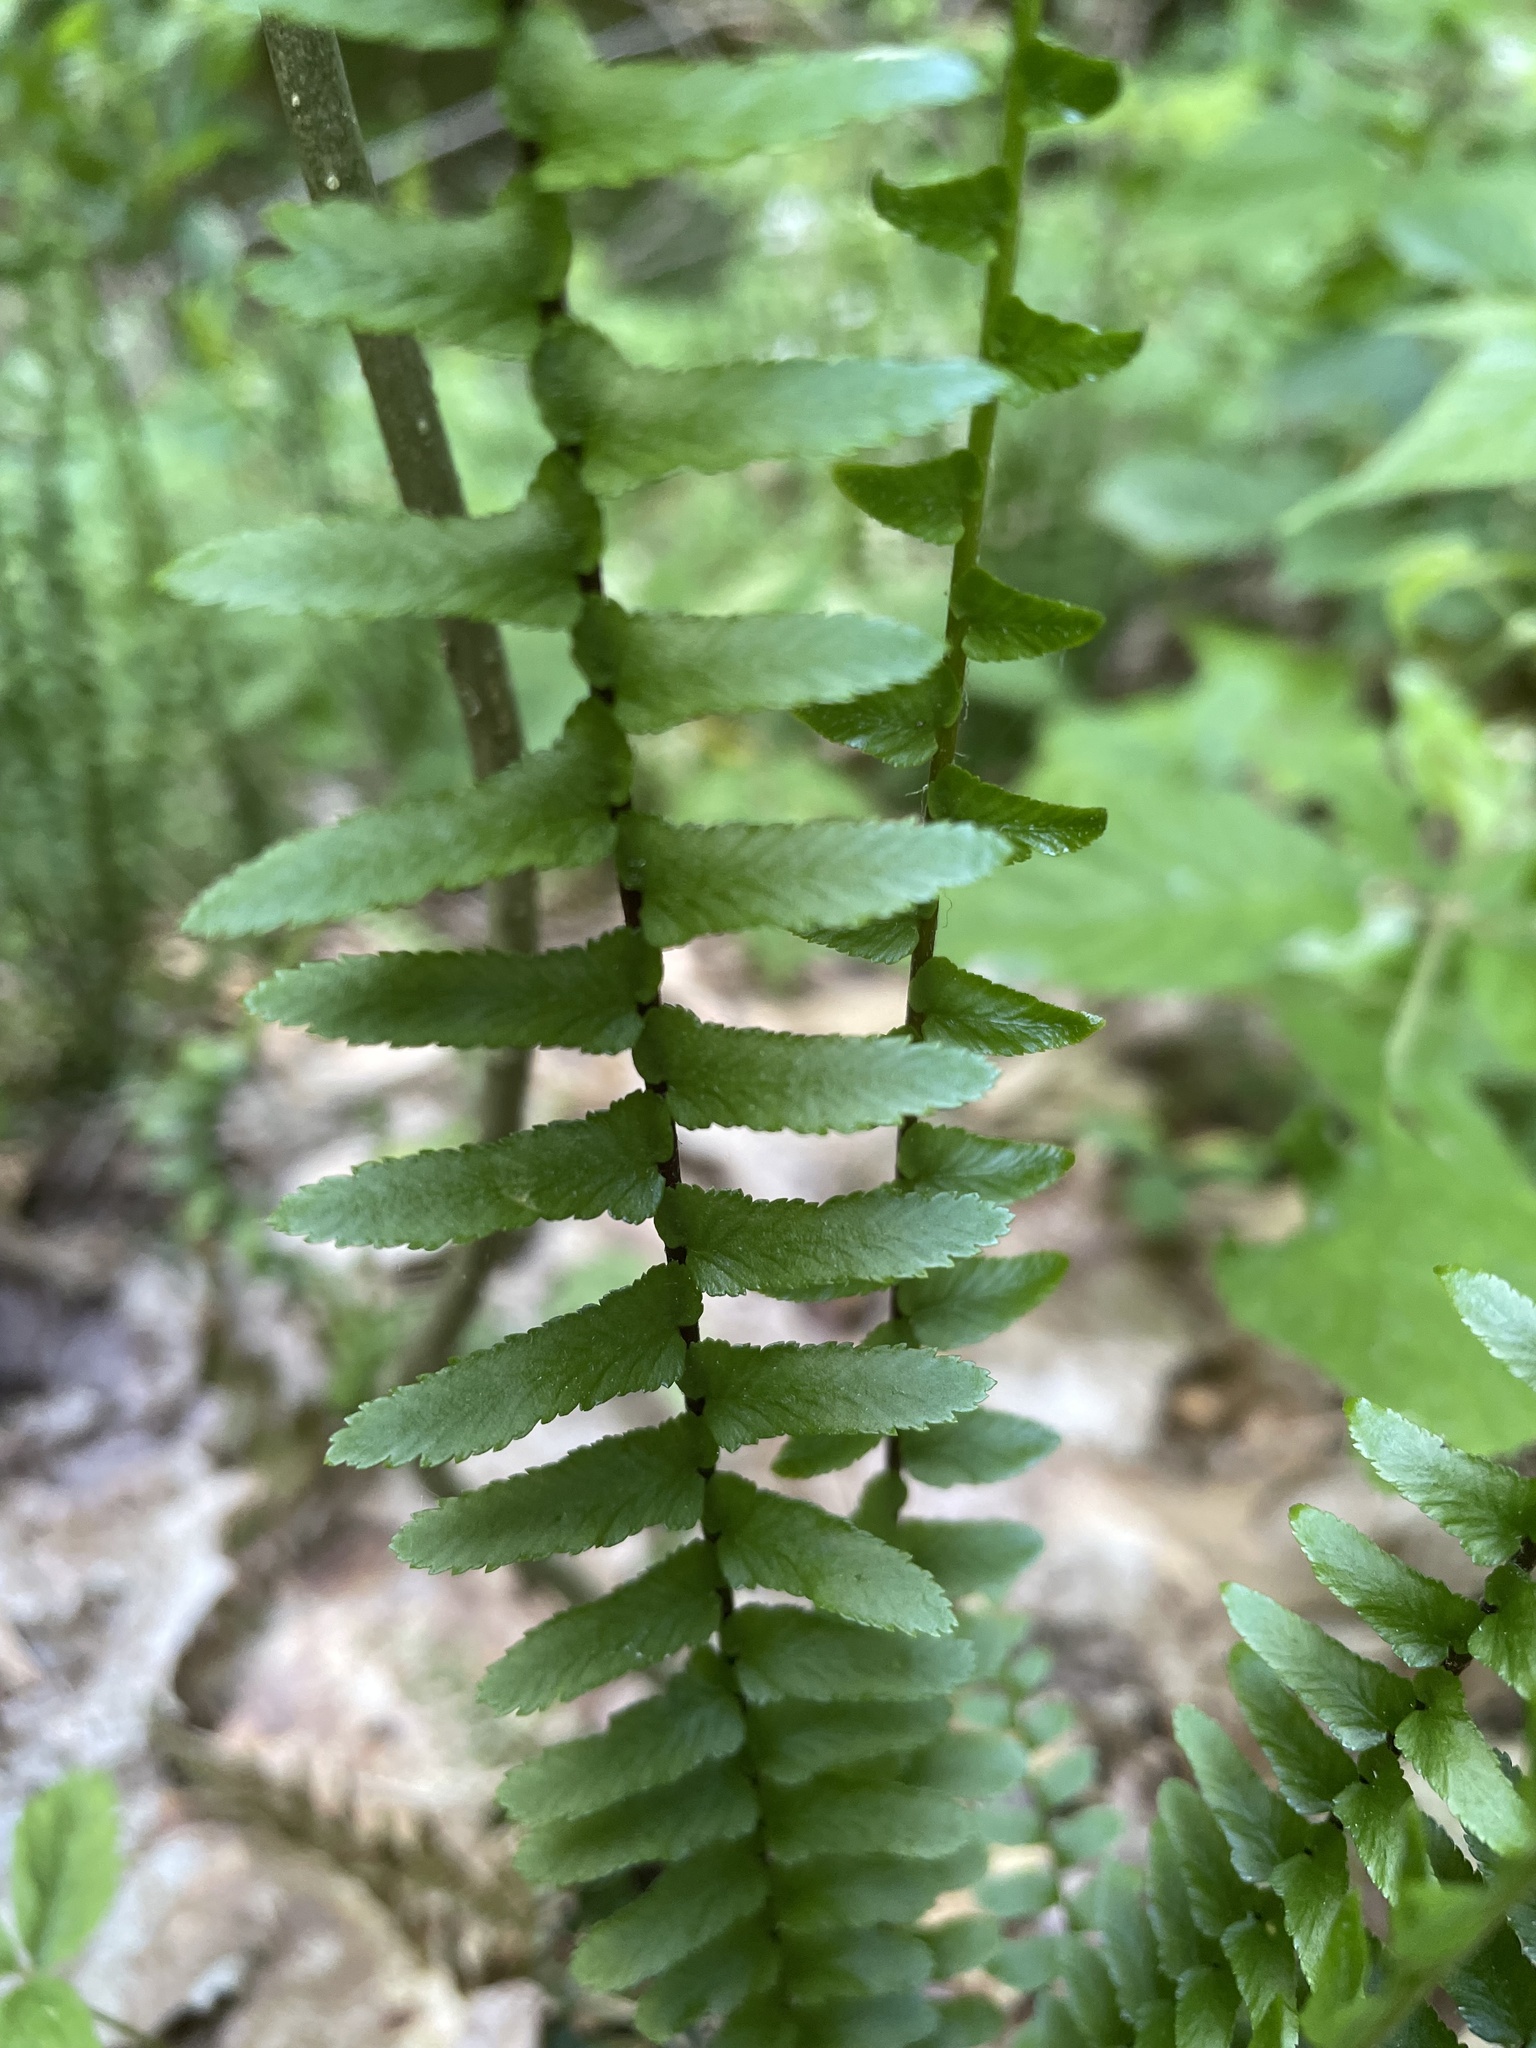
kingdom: Plantae
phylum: Tracheophyta
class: Polypodiopsida
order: Polypodiales
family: Aspleniaceae
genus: Asplenium
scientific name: Asplenium platyneuron
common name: Ebony spleenwort
